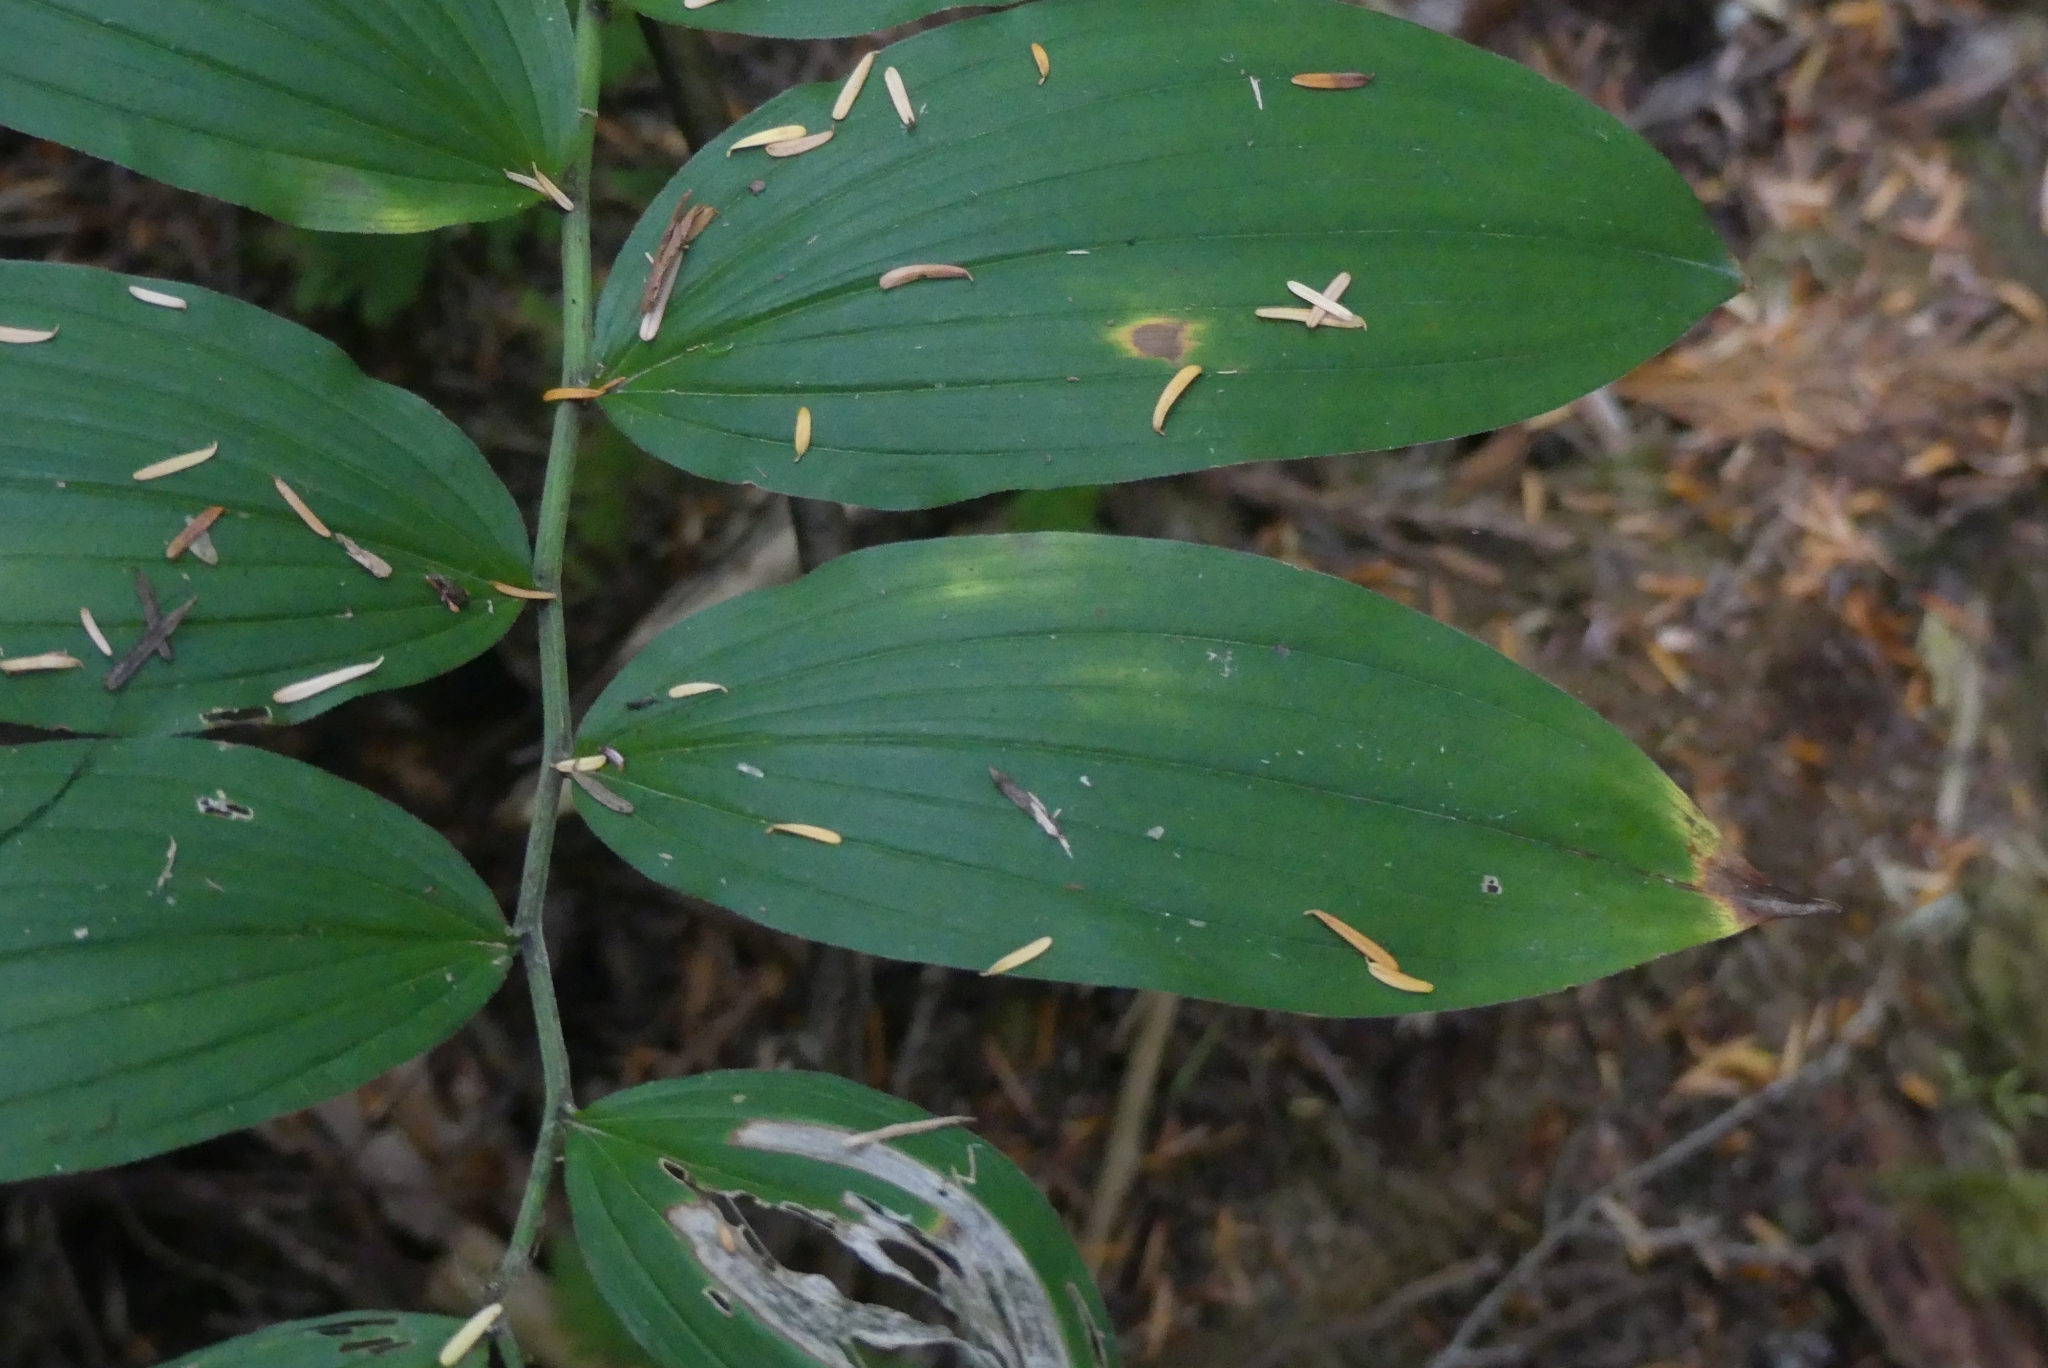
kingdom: Plantae
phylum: Tracheophyta
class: Liliopsida
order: Asparagales
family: Asparagaceae
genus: Maianthemum
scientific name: Maianthemum racemosum
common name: False spikenard
